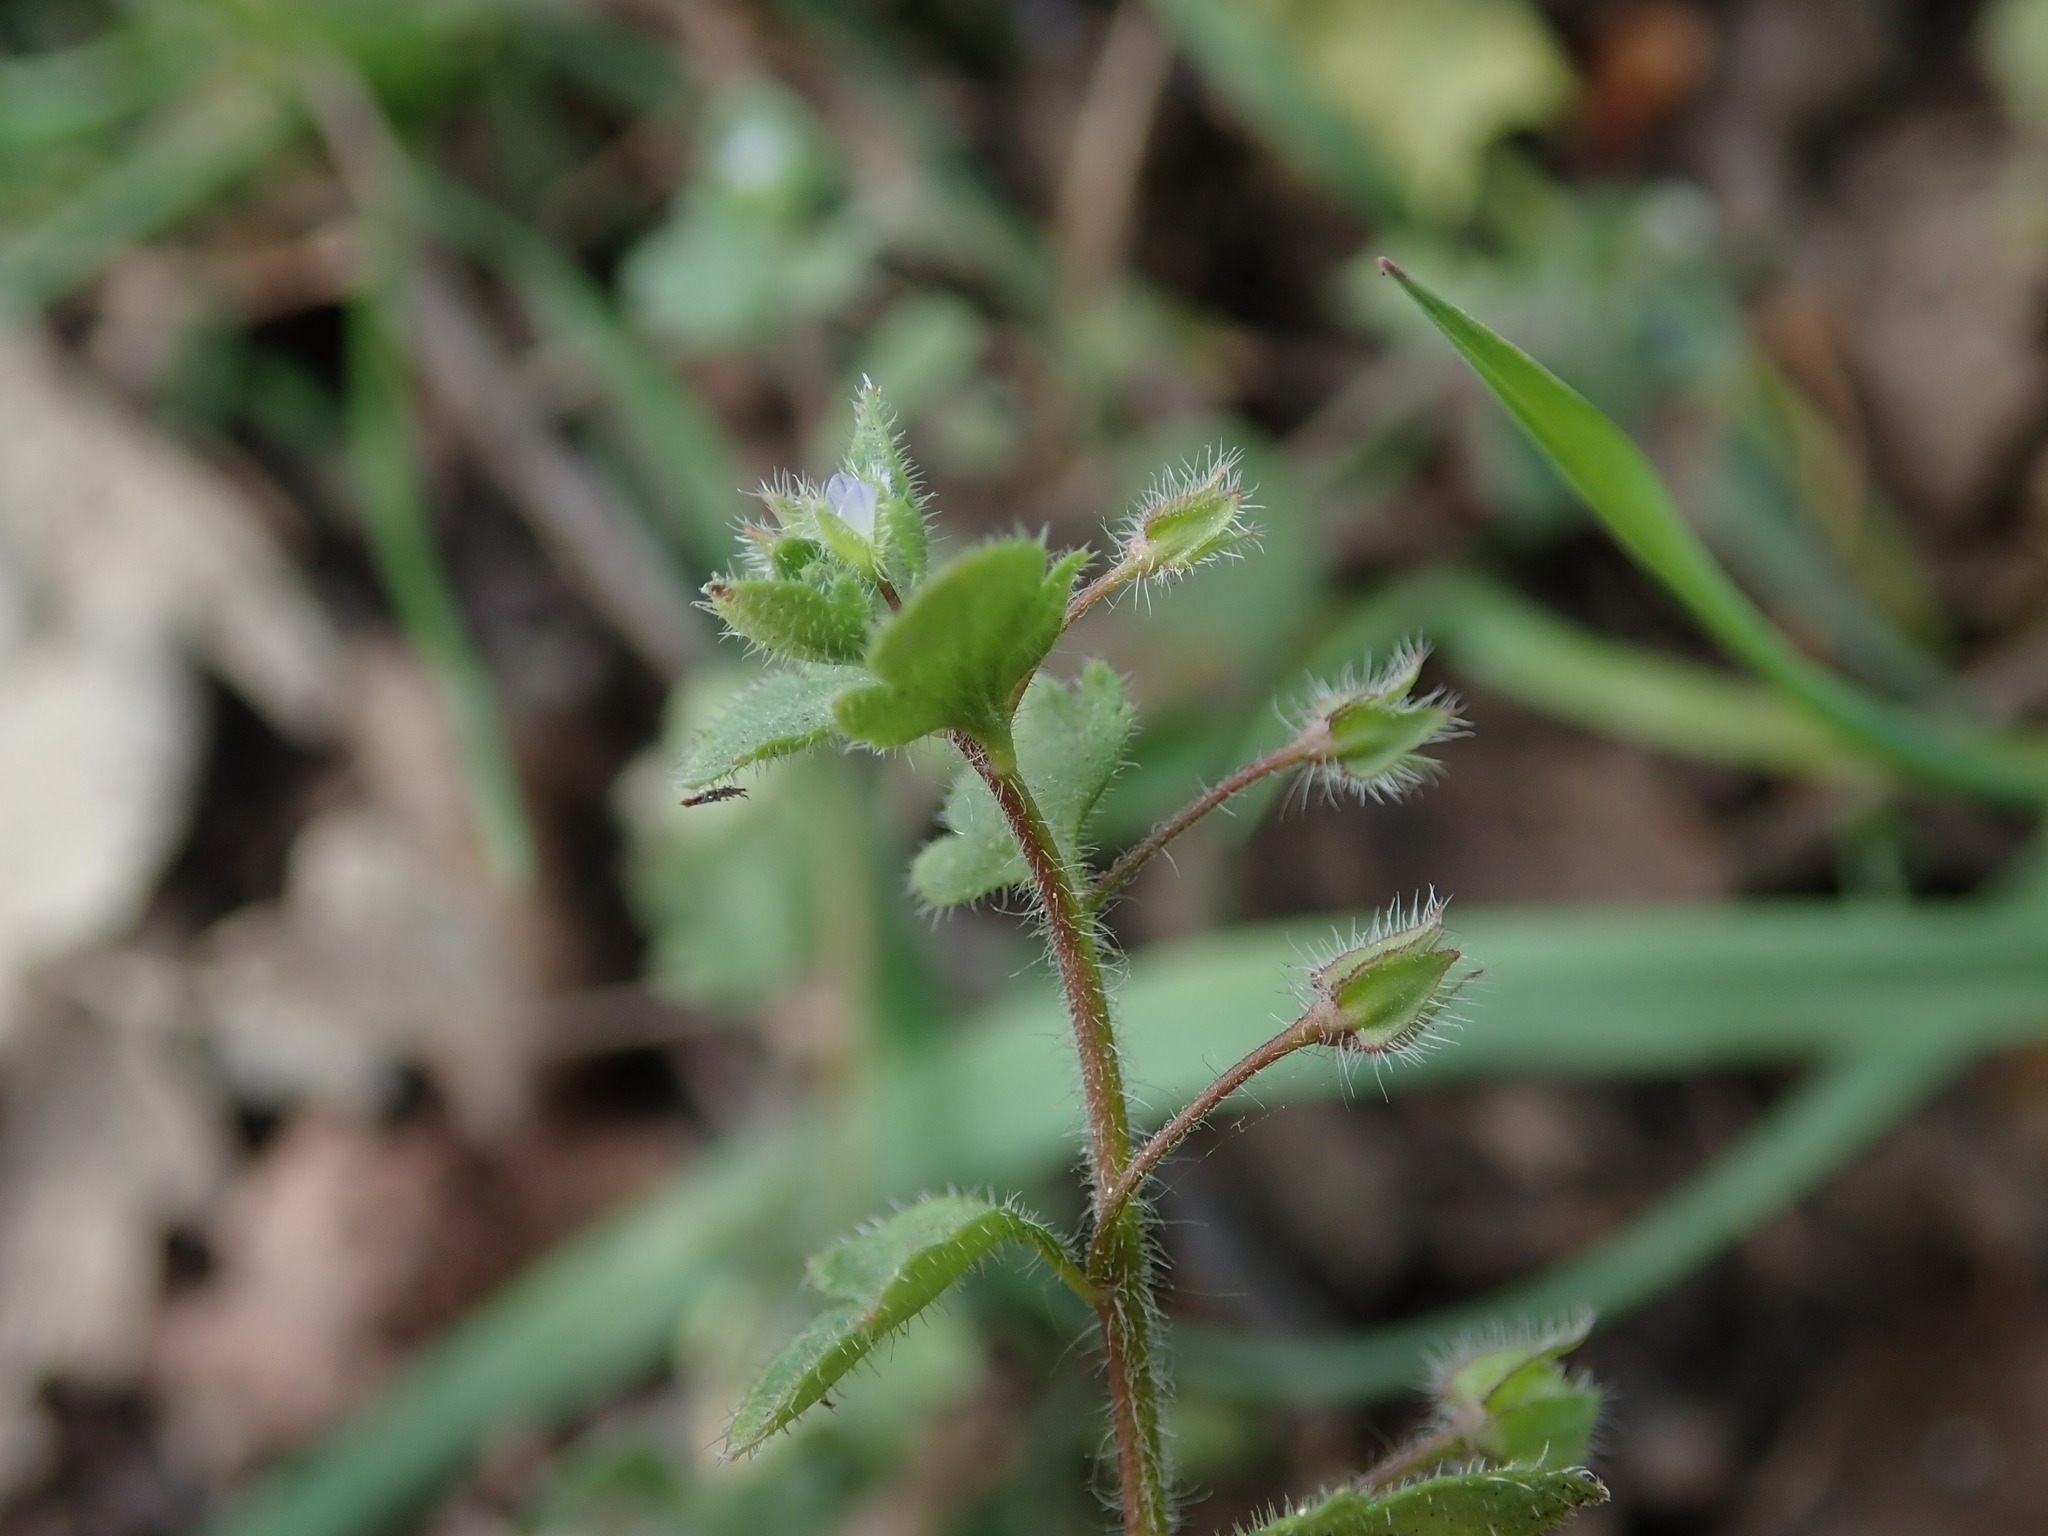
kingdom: Plantae
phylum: Tracheophyta
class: Magnoliopsida
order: Lamiales
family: Plantaginaceae
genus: Veronica
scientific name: Veronica sublobata
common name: False ivy-leaved speedwell
